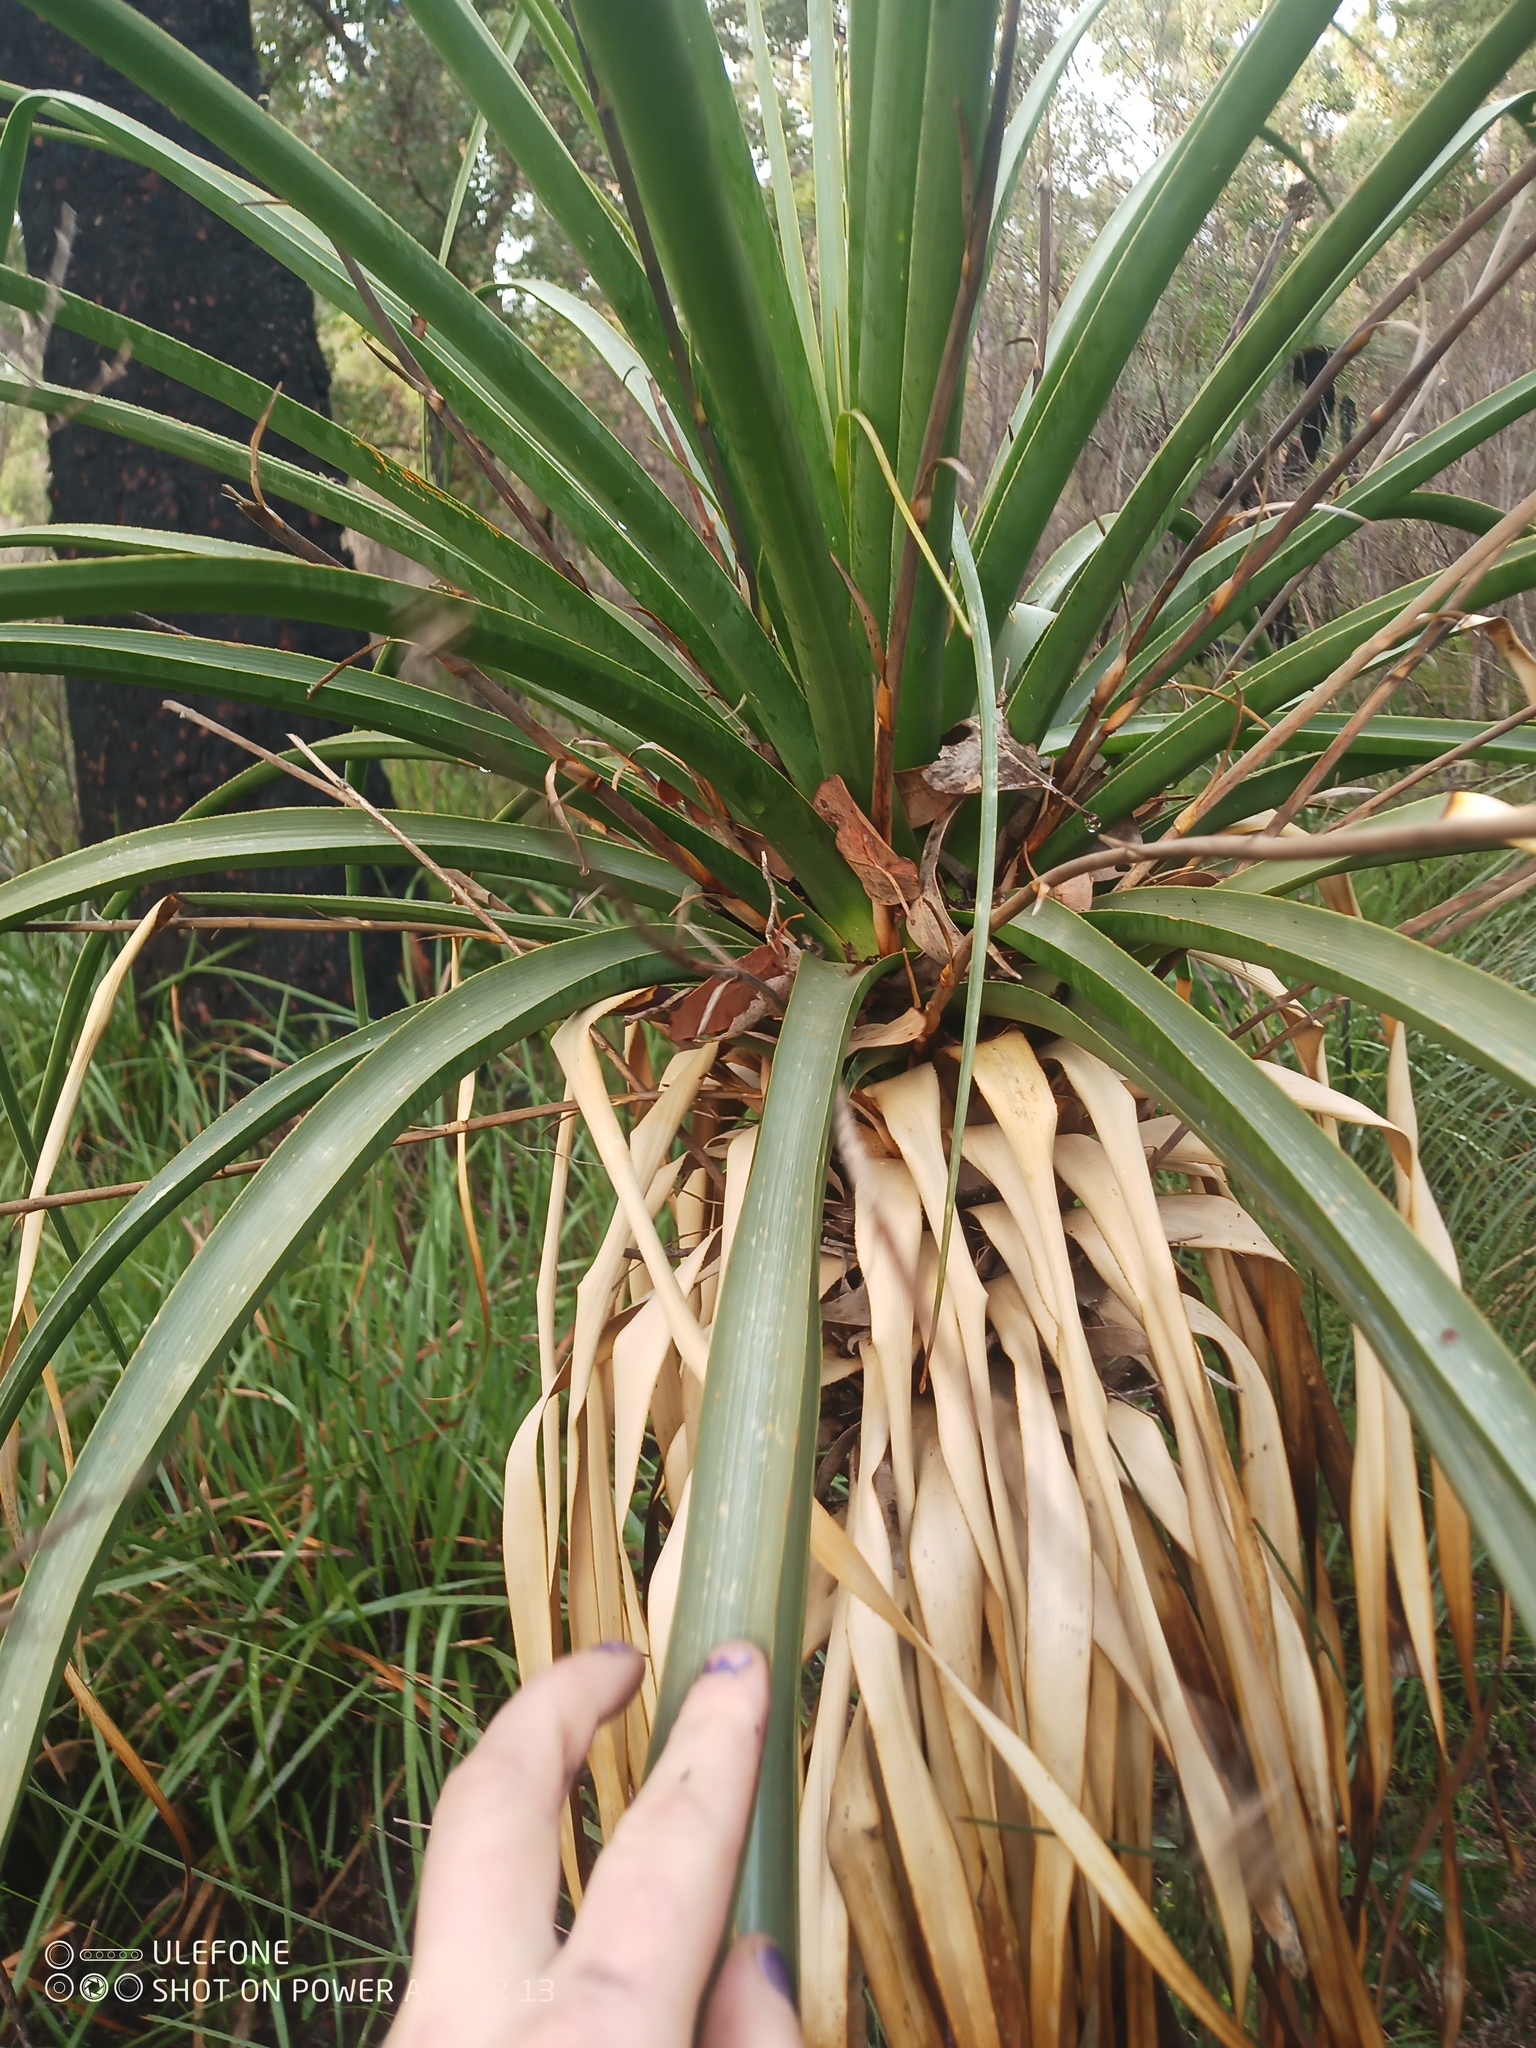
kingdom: Plantae
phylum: Tracheophyta
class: Liliopsida
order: Arecales
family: Dasypogonaceae
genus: Dasypogon
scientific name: Dasypogon hookeri
